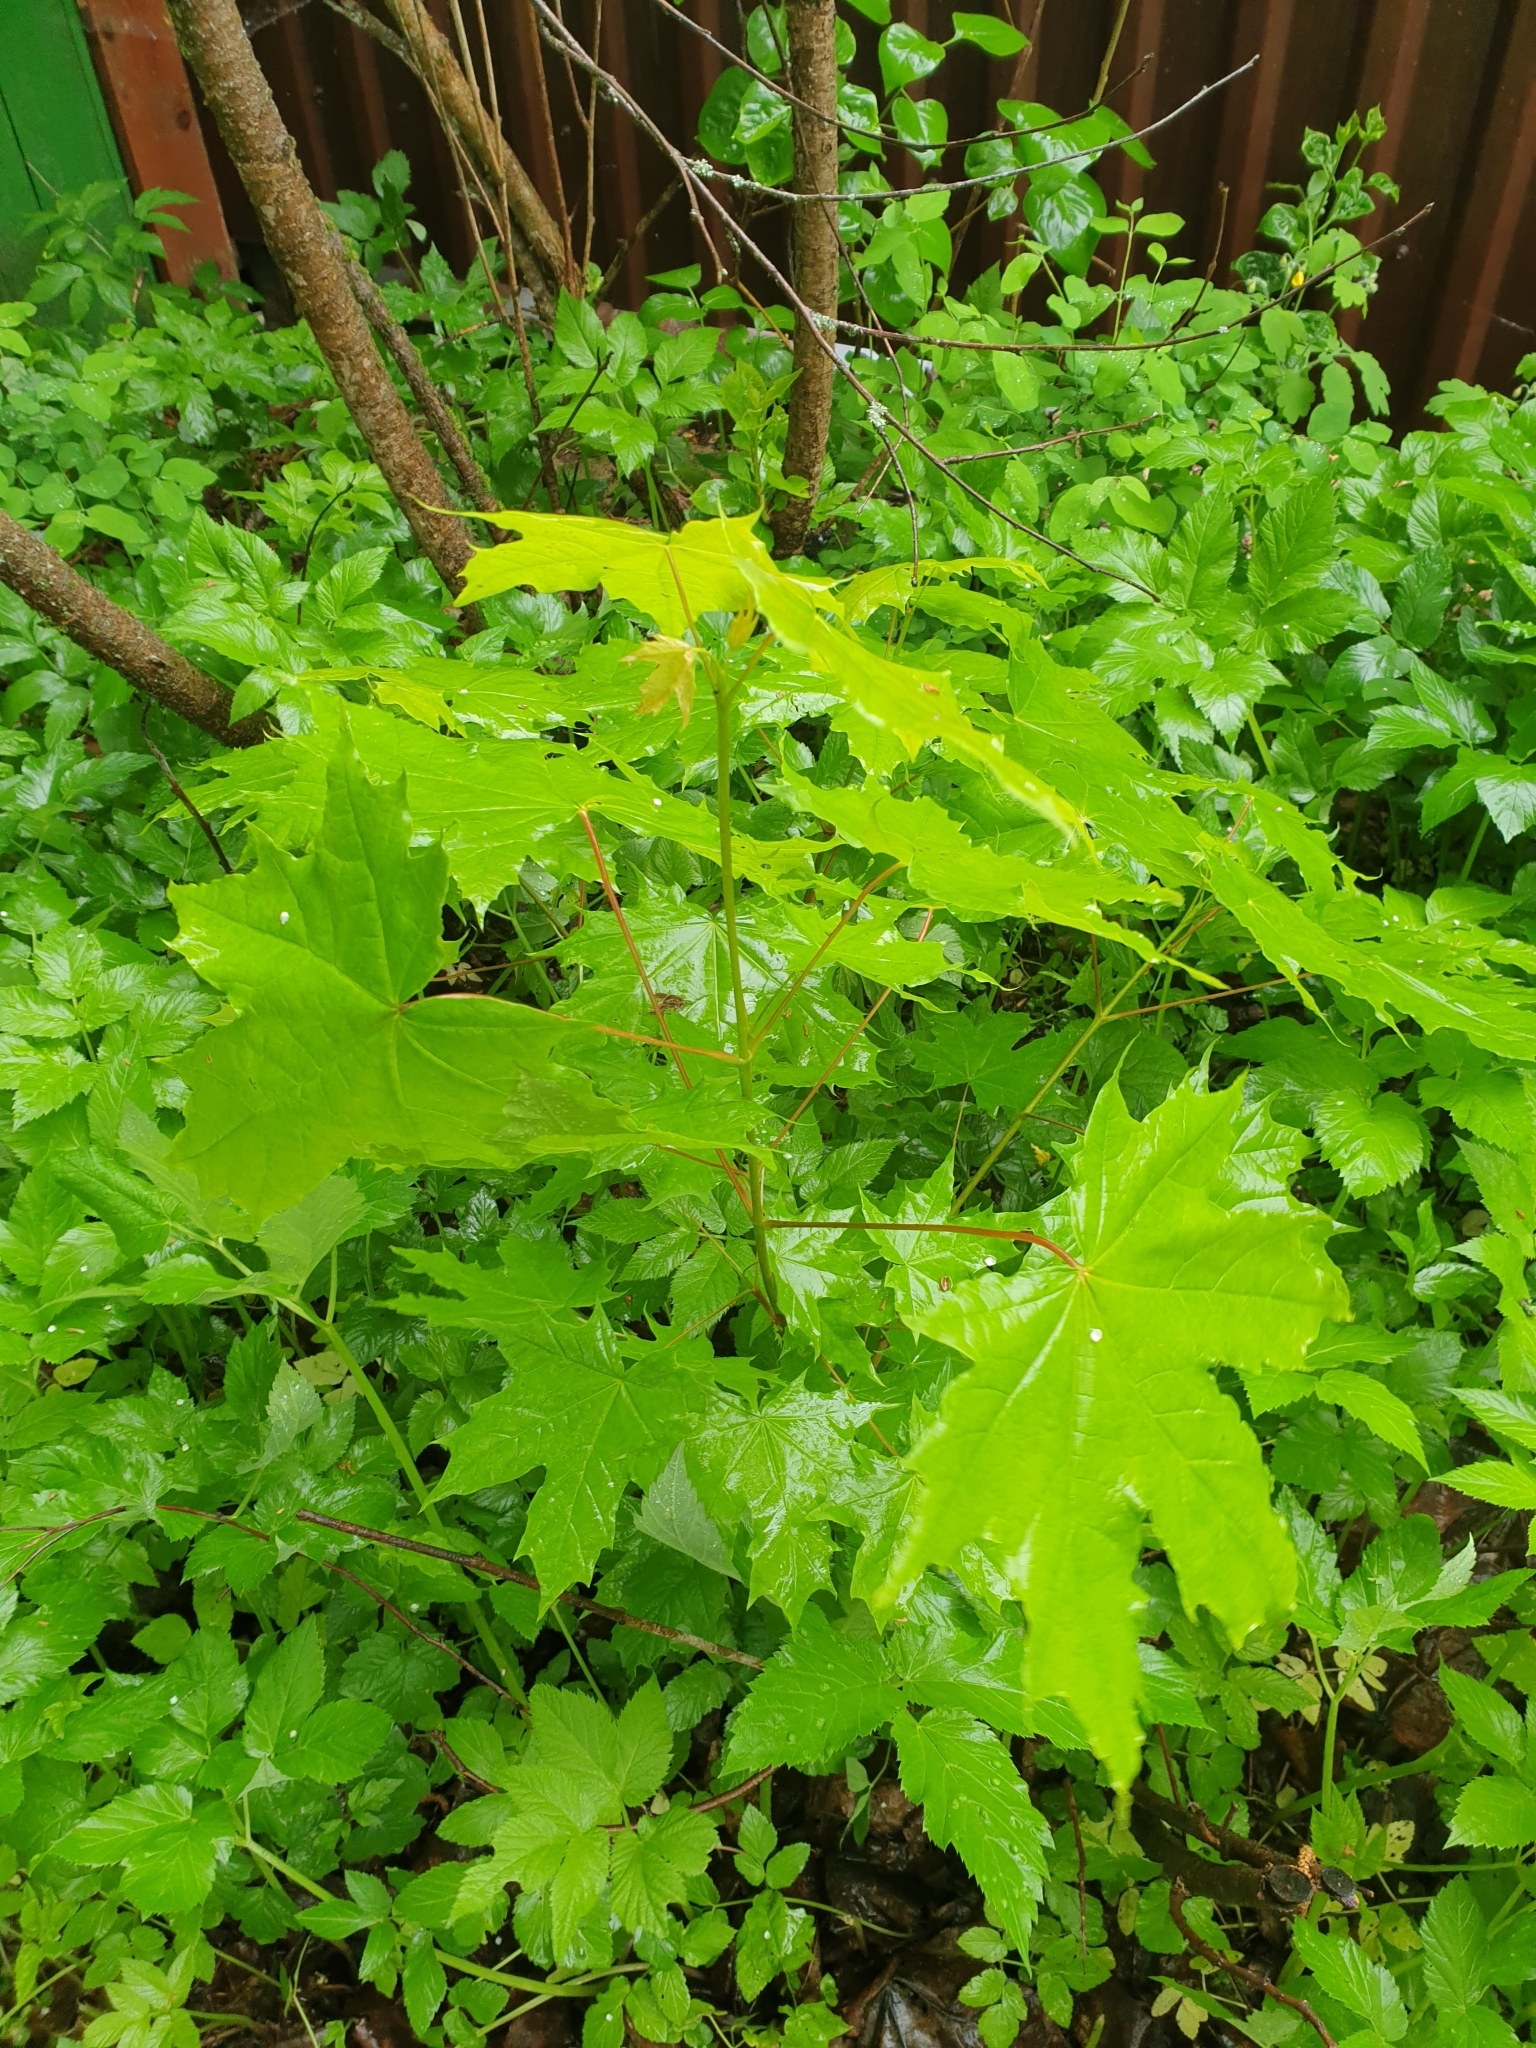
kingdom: Plantae
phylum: Tracheophyta
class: Magnoliopsida
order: Sapindales
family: Sapindaceae
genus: Acer
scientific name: Acer platanoides
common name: Norway maple
